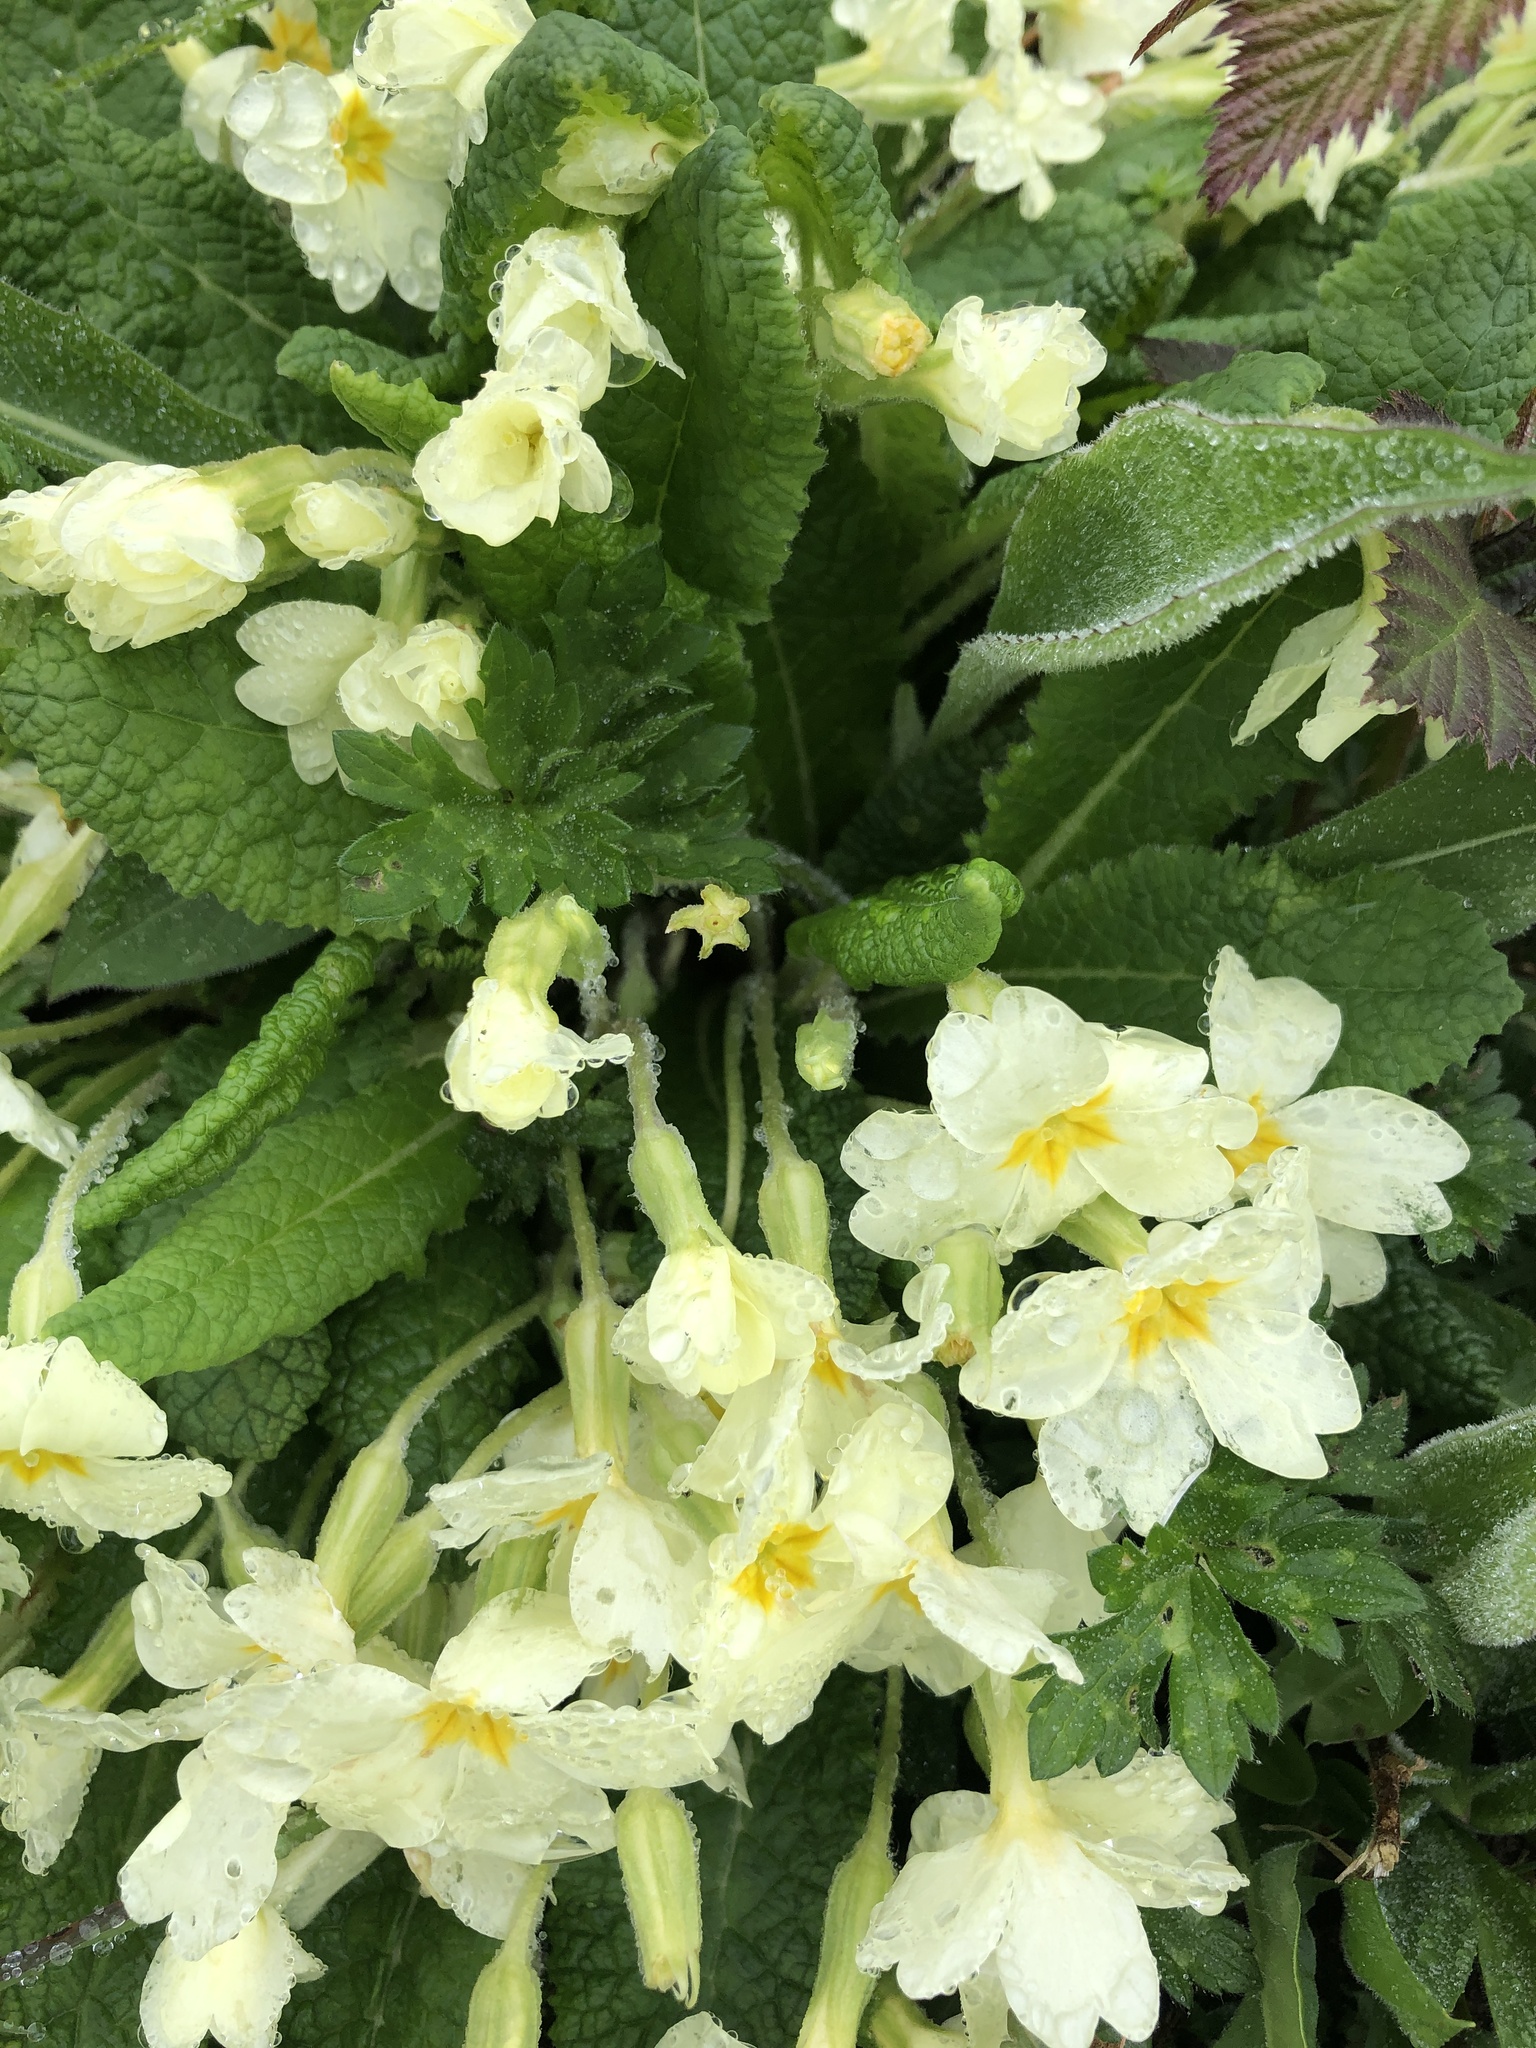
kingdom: Plantae
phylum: Tracheophyta
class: Magnoliopsida
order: Ericales
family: Primulaceae
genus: Primula
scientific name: Primula vulgaris
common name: Primrose
